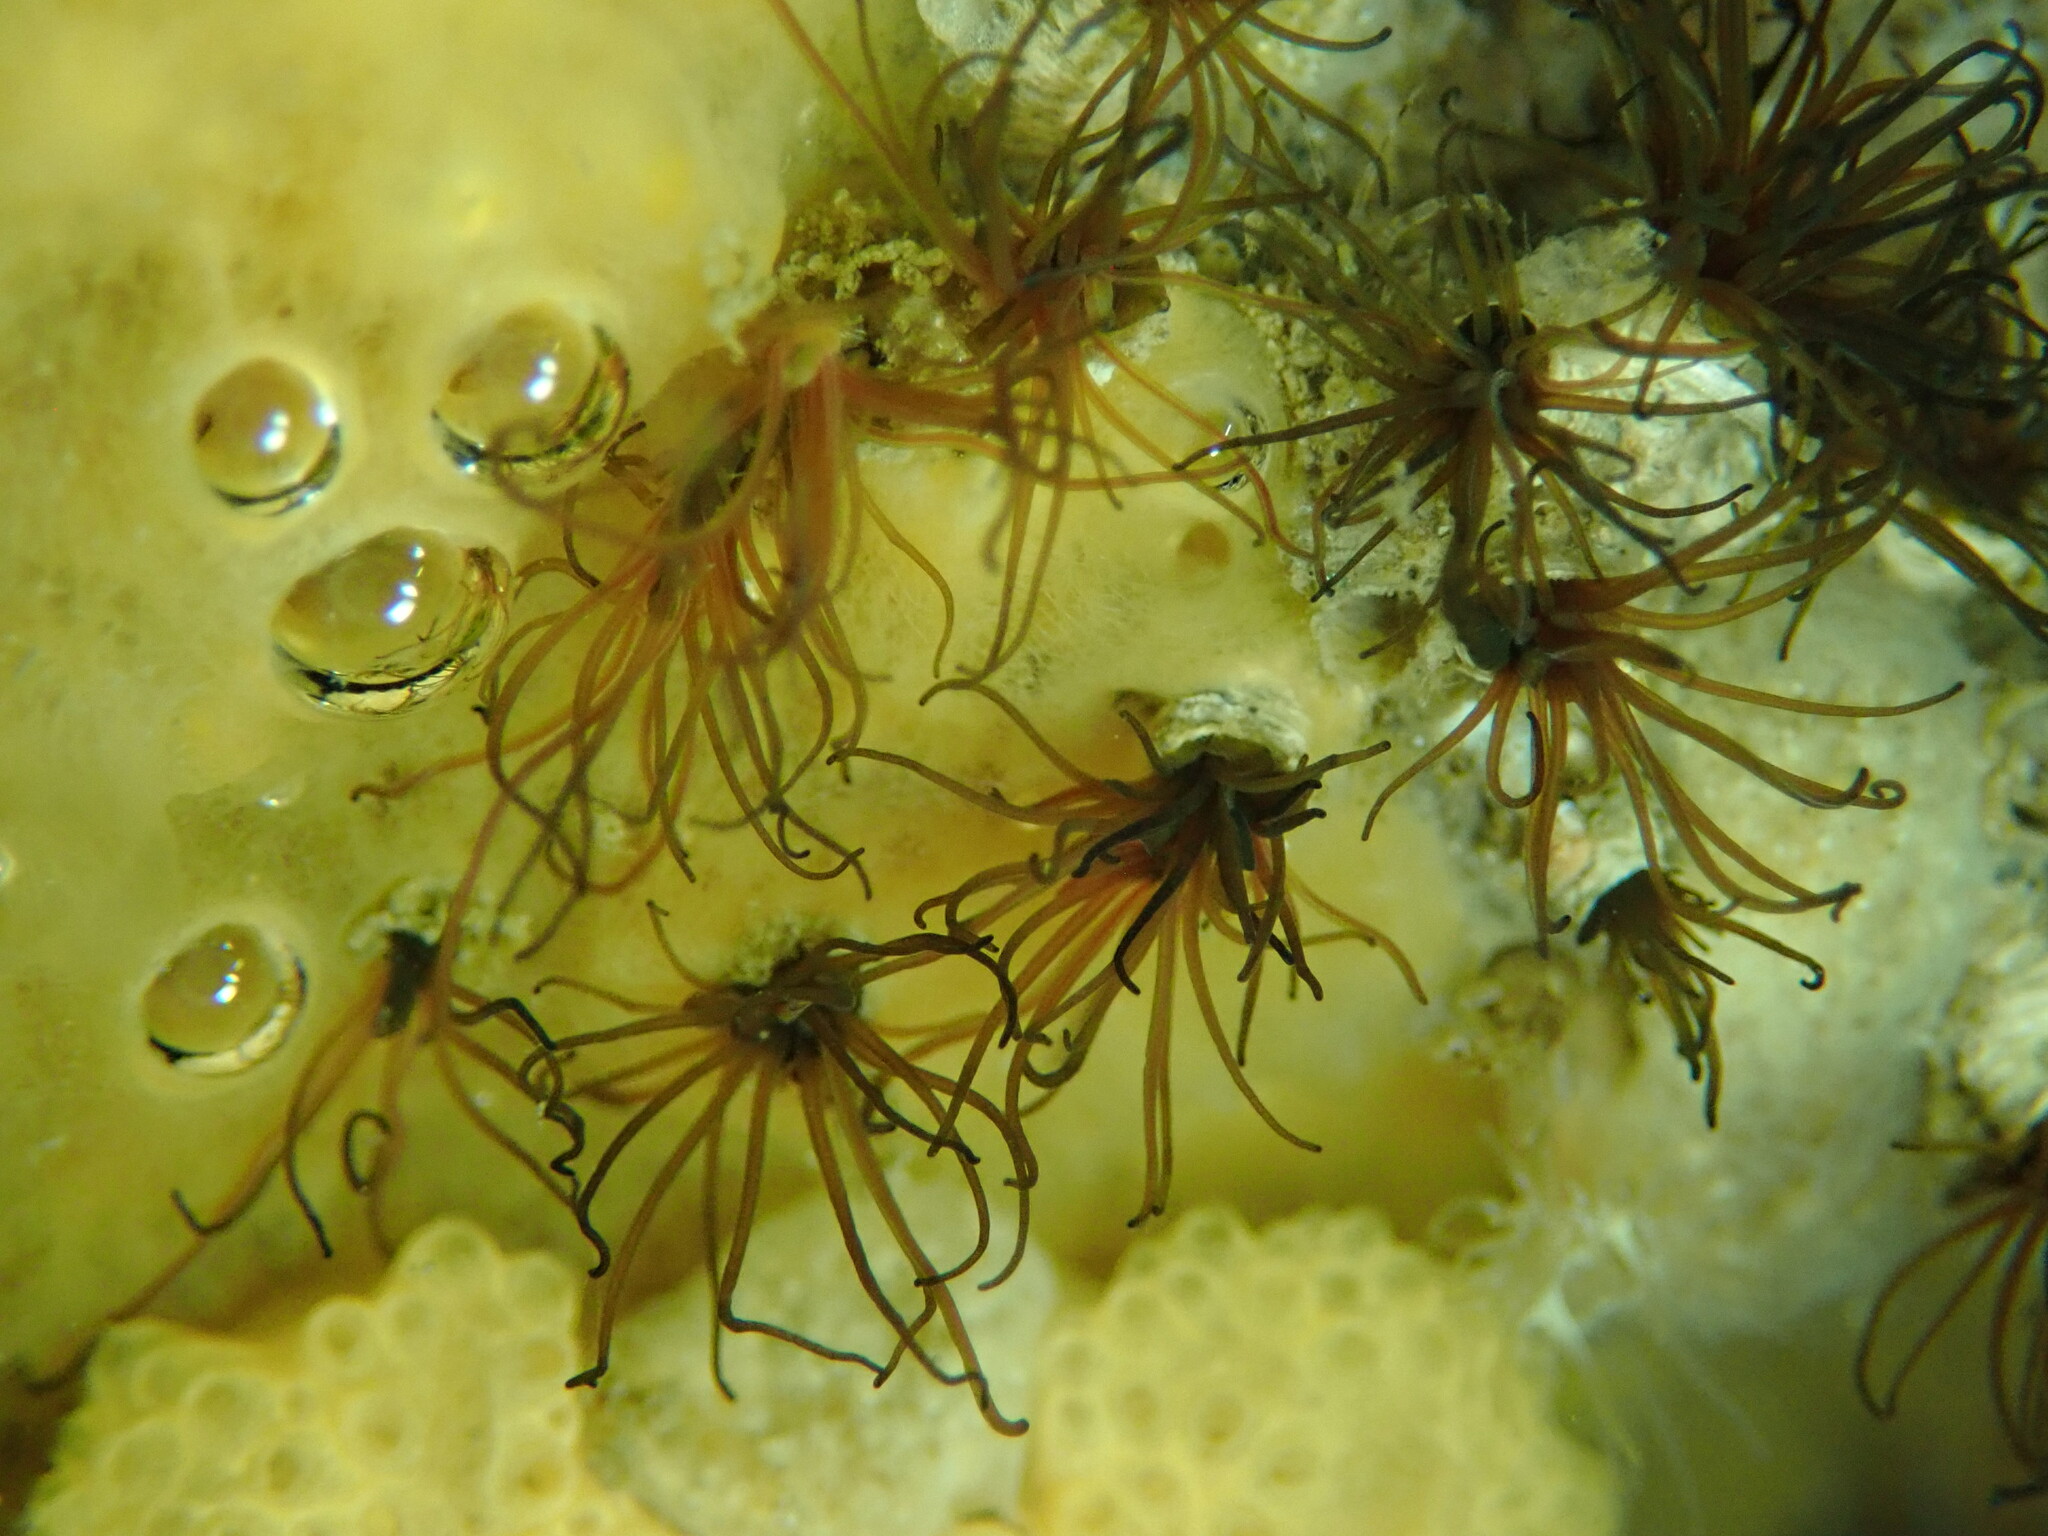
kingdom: Animalia
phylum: Annelida
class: Polychaeta
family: Cirratulidae
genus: Dodecaceria
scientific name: Dodecaceria pacifica
